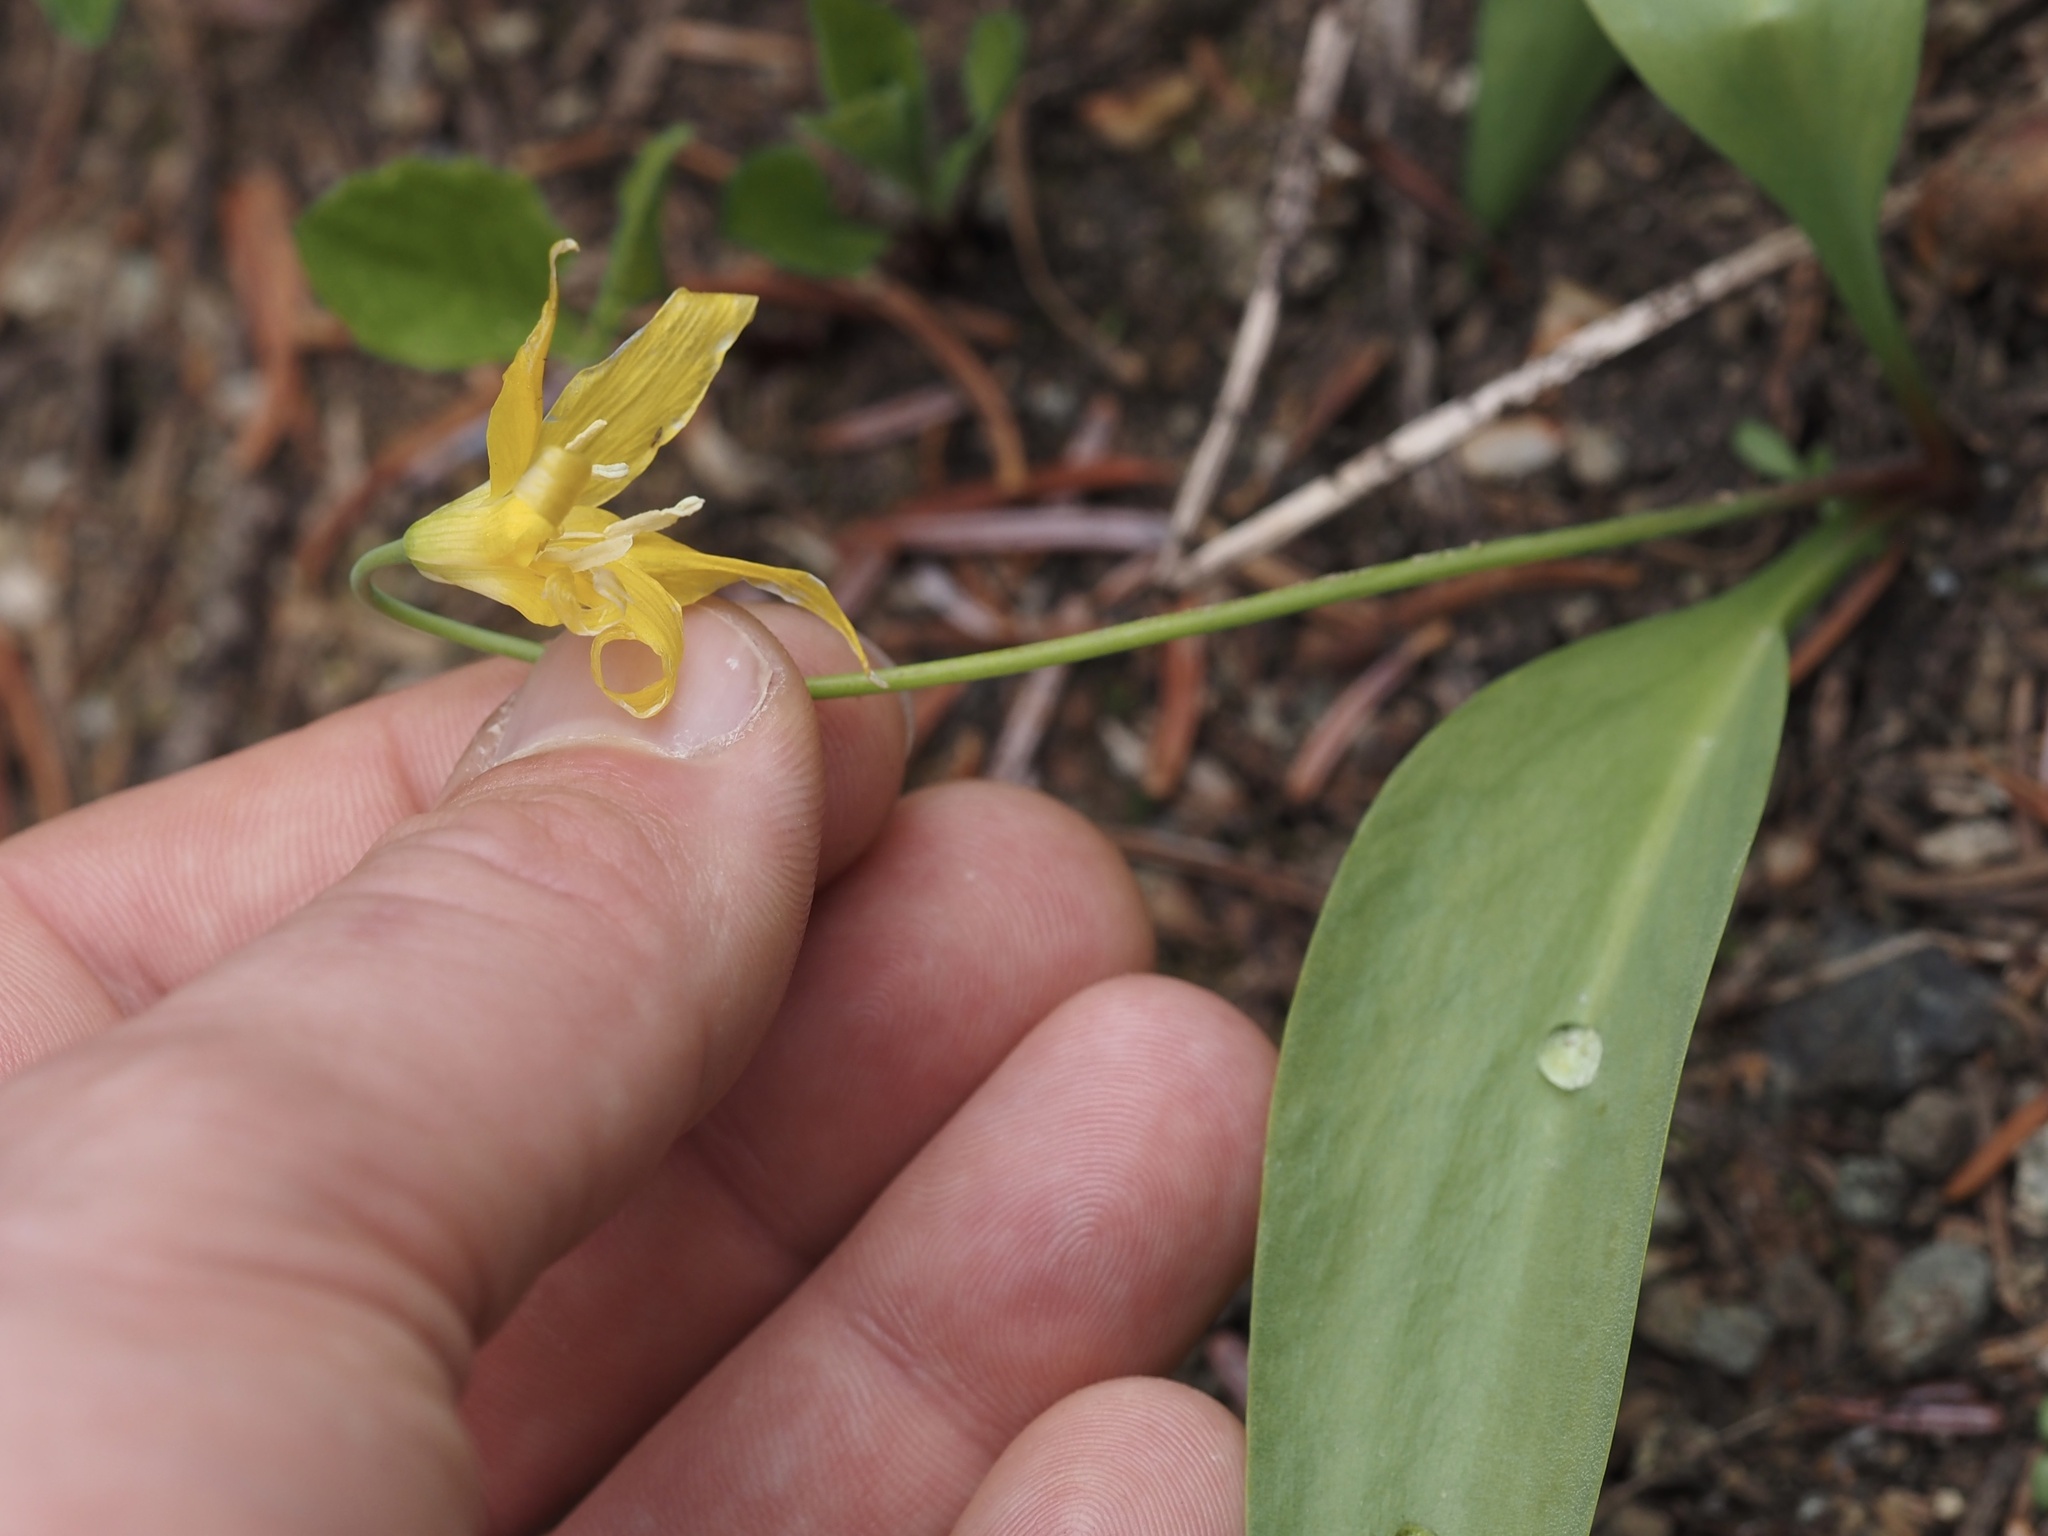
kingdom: Plantae
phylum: Tracheophyta
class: Liliopsida
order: Liliales
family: Liliaceae
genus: Erythronium
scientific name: Erythronium grandiflorum
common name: Avalanche-lily
